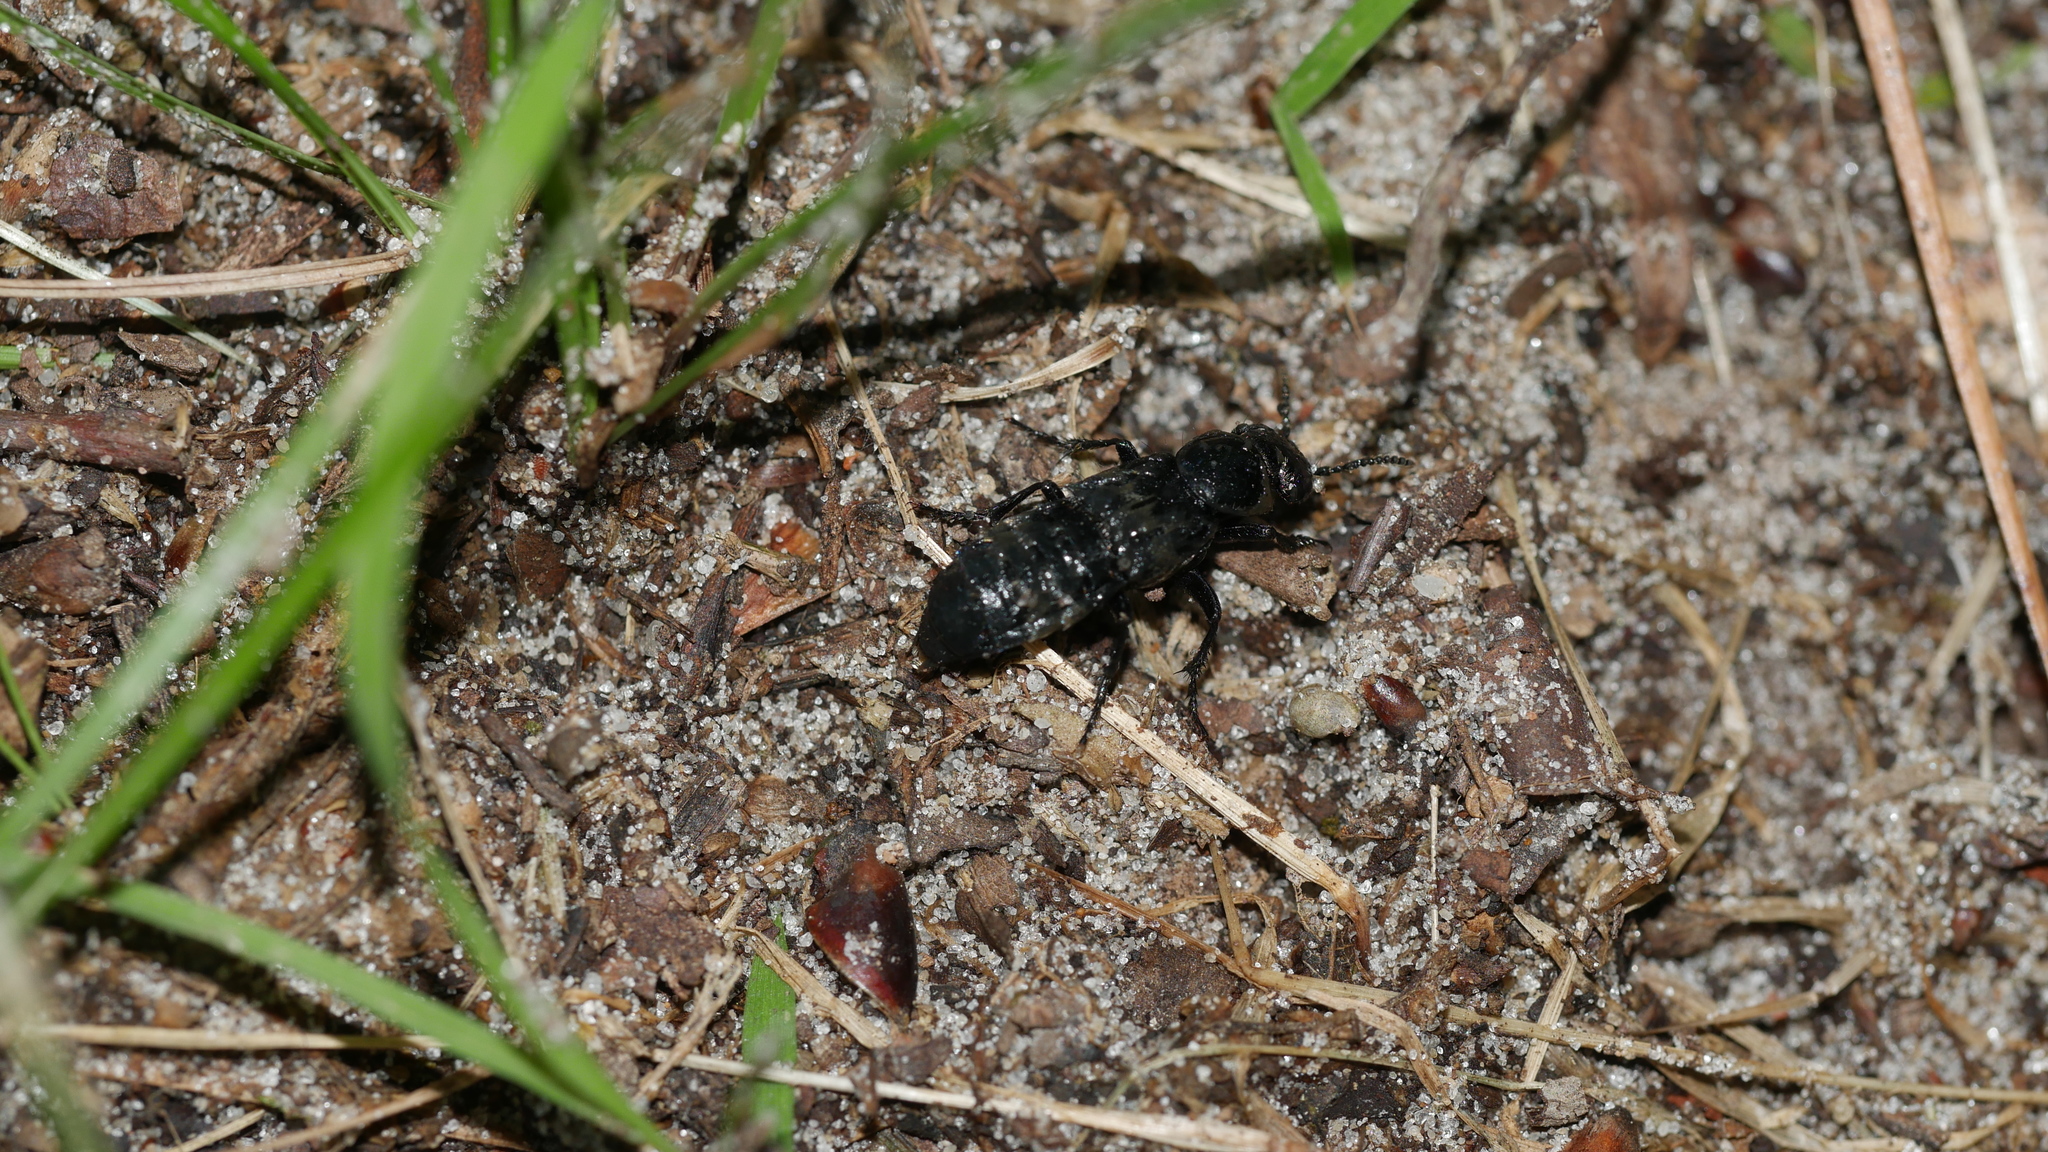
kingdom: Animalia
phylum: Arthropoda
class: Insecta
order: Coleoptera
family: Staphylinidae
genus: Creophilus
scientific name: Creophilus maxillosus
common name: Hairy rove beetle
